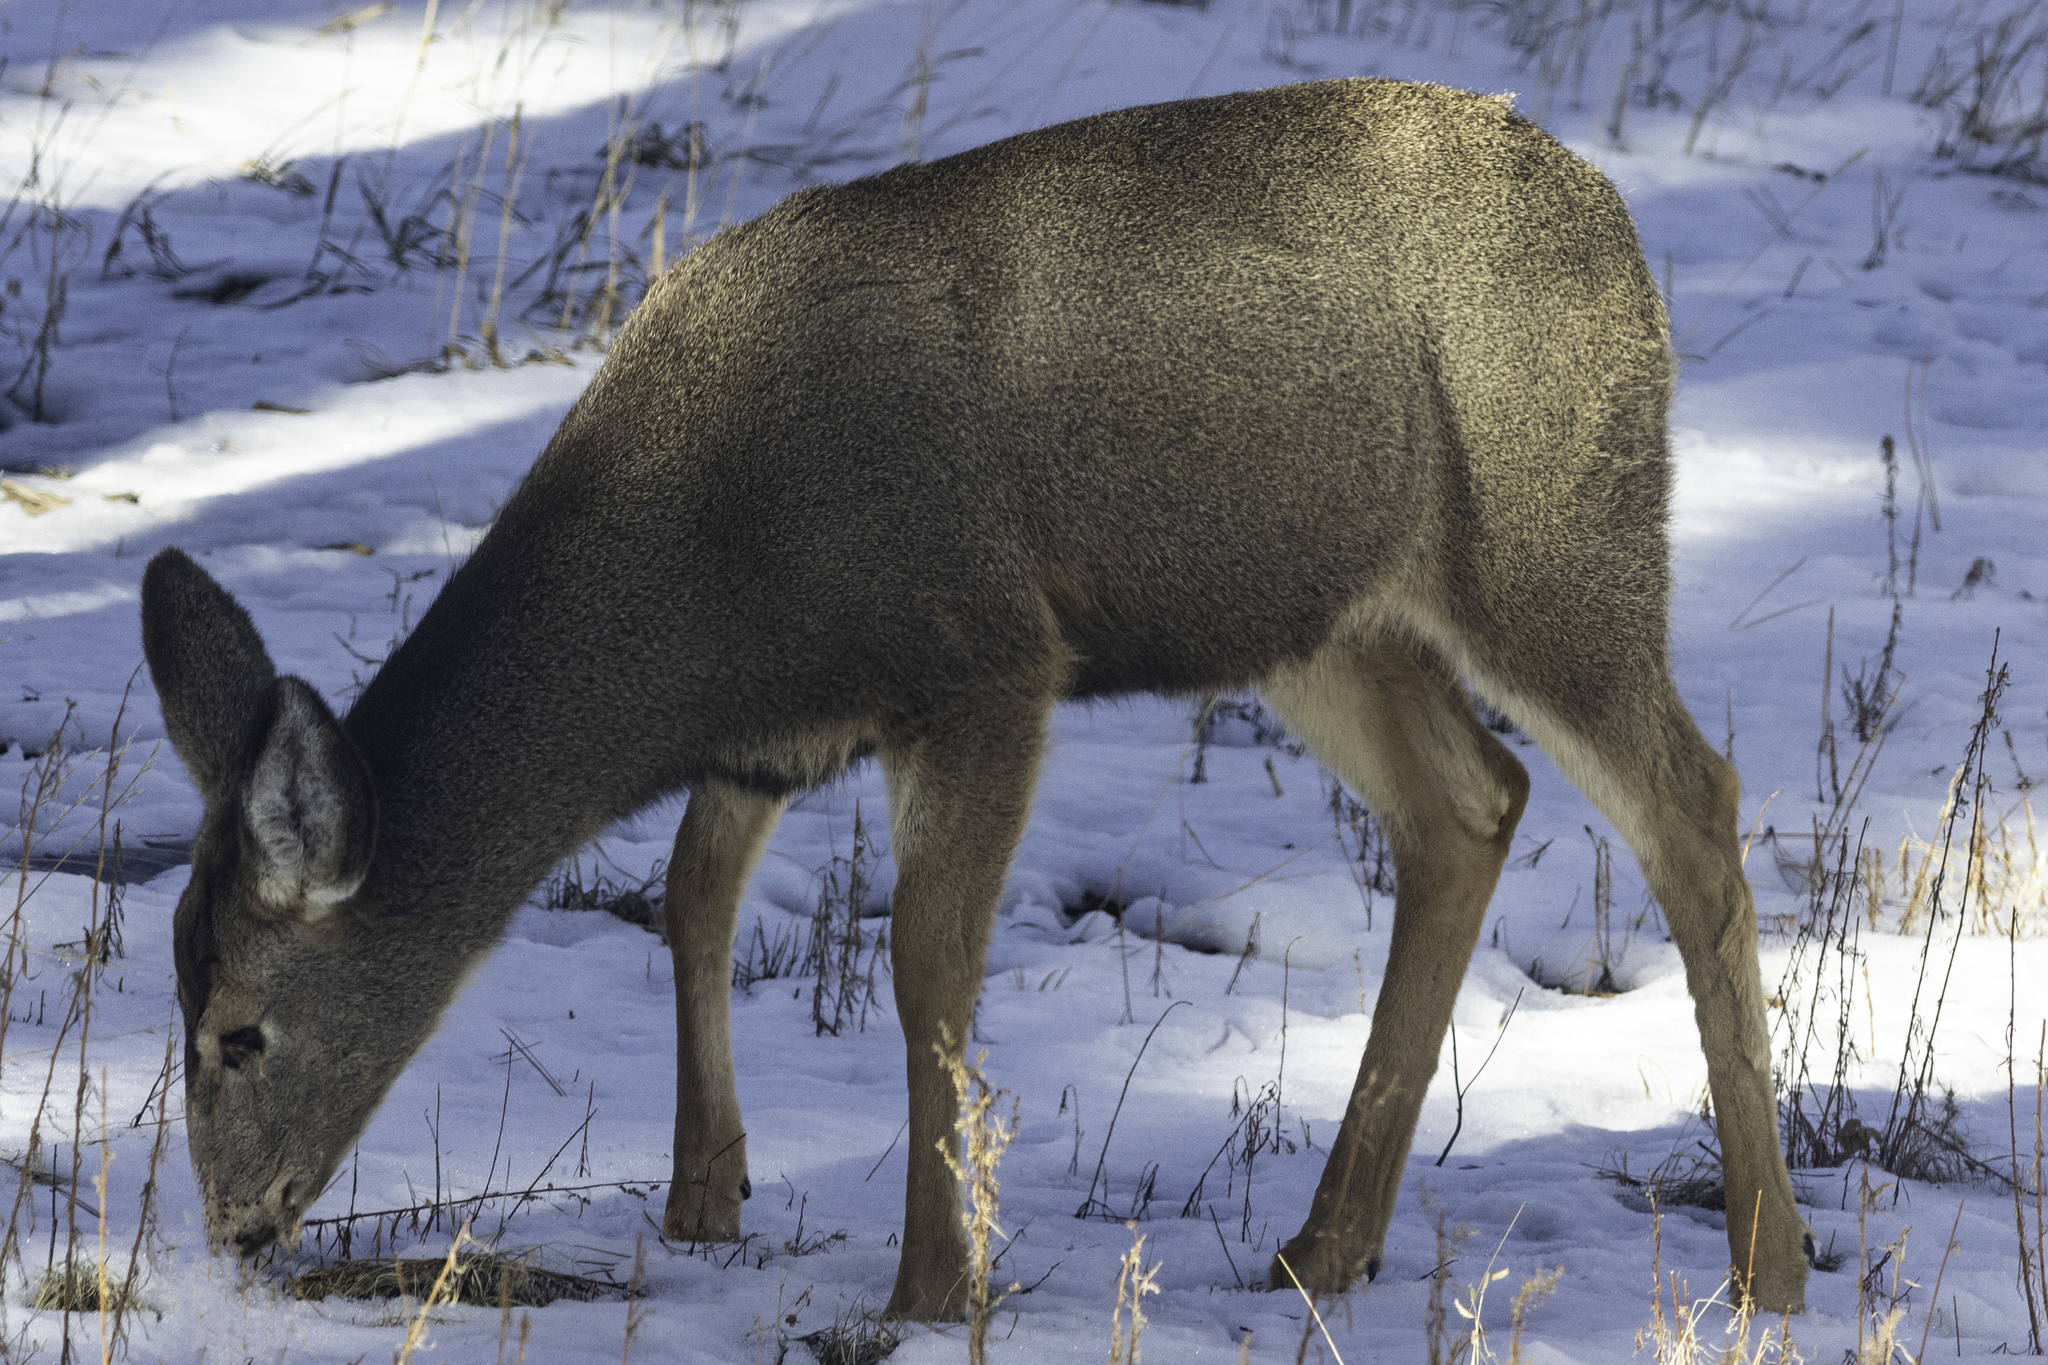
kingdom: Animalia
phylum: Chordata
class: Mammalia
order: Artiodactyla
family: Cervidae
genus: Odocoileus
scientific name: Odocoileus hemionus
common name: Mule deer
